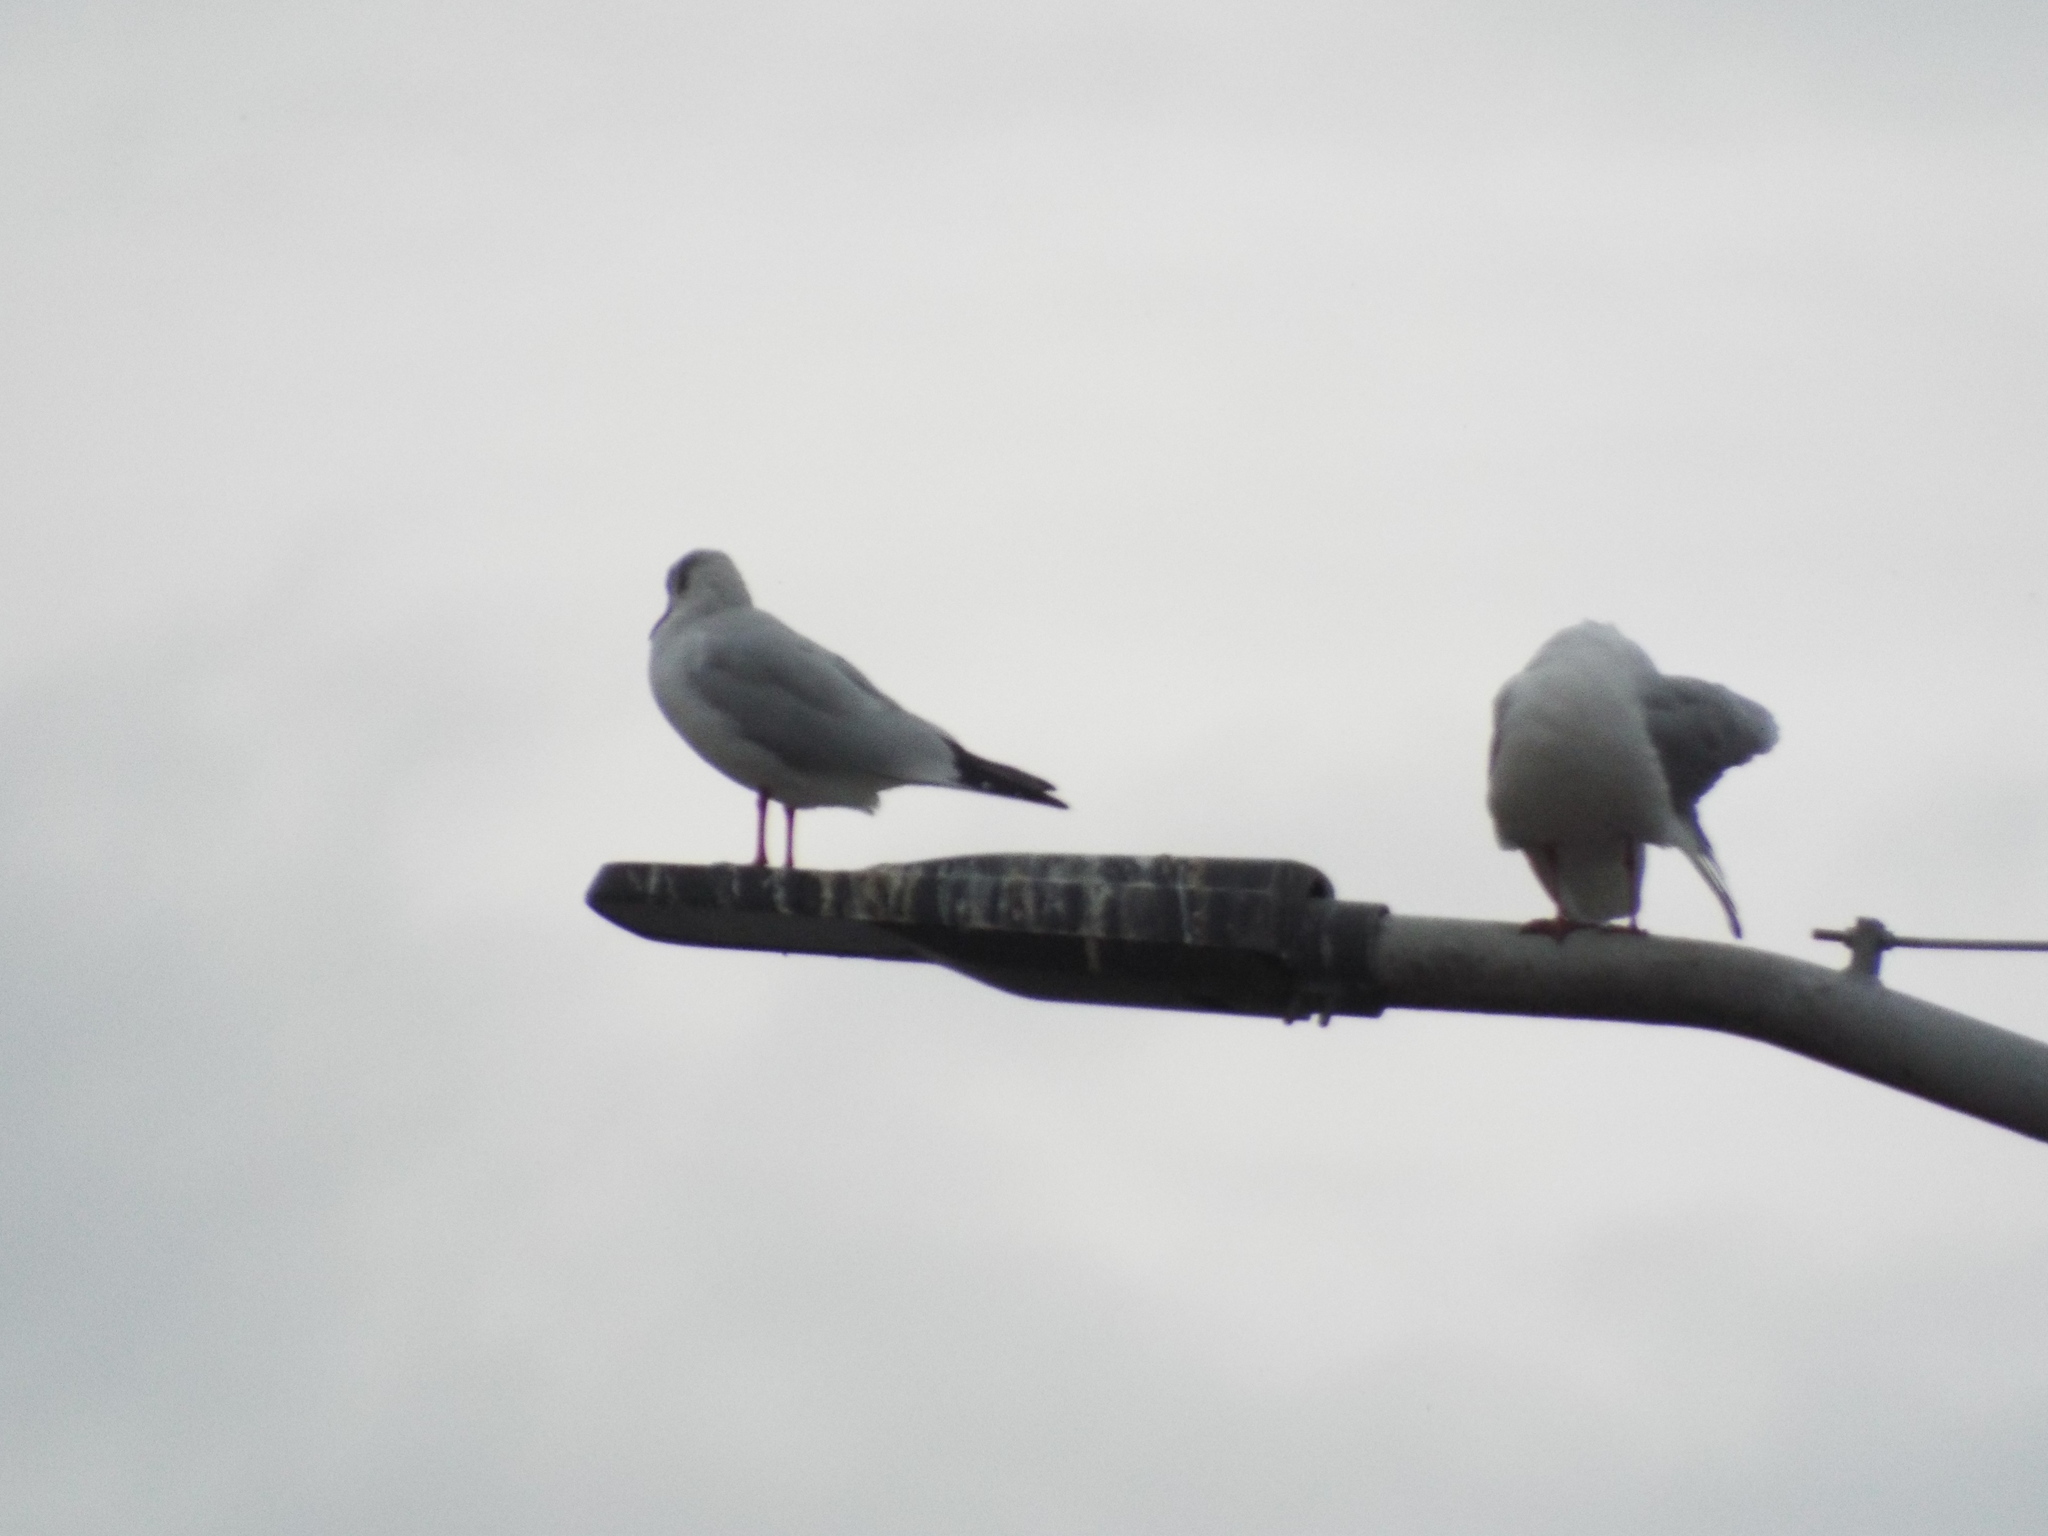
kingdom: Animalia
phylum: Chordata
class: Aves
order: Charadriiformes
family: Laridae
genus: Chroicocephalus
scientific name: Chroicocephalus ridibundus
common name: Black-headed gull
